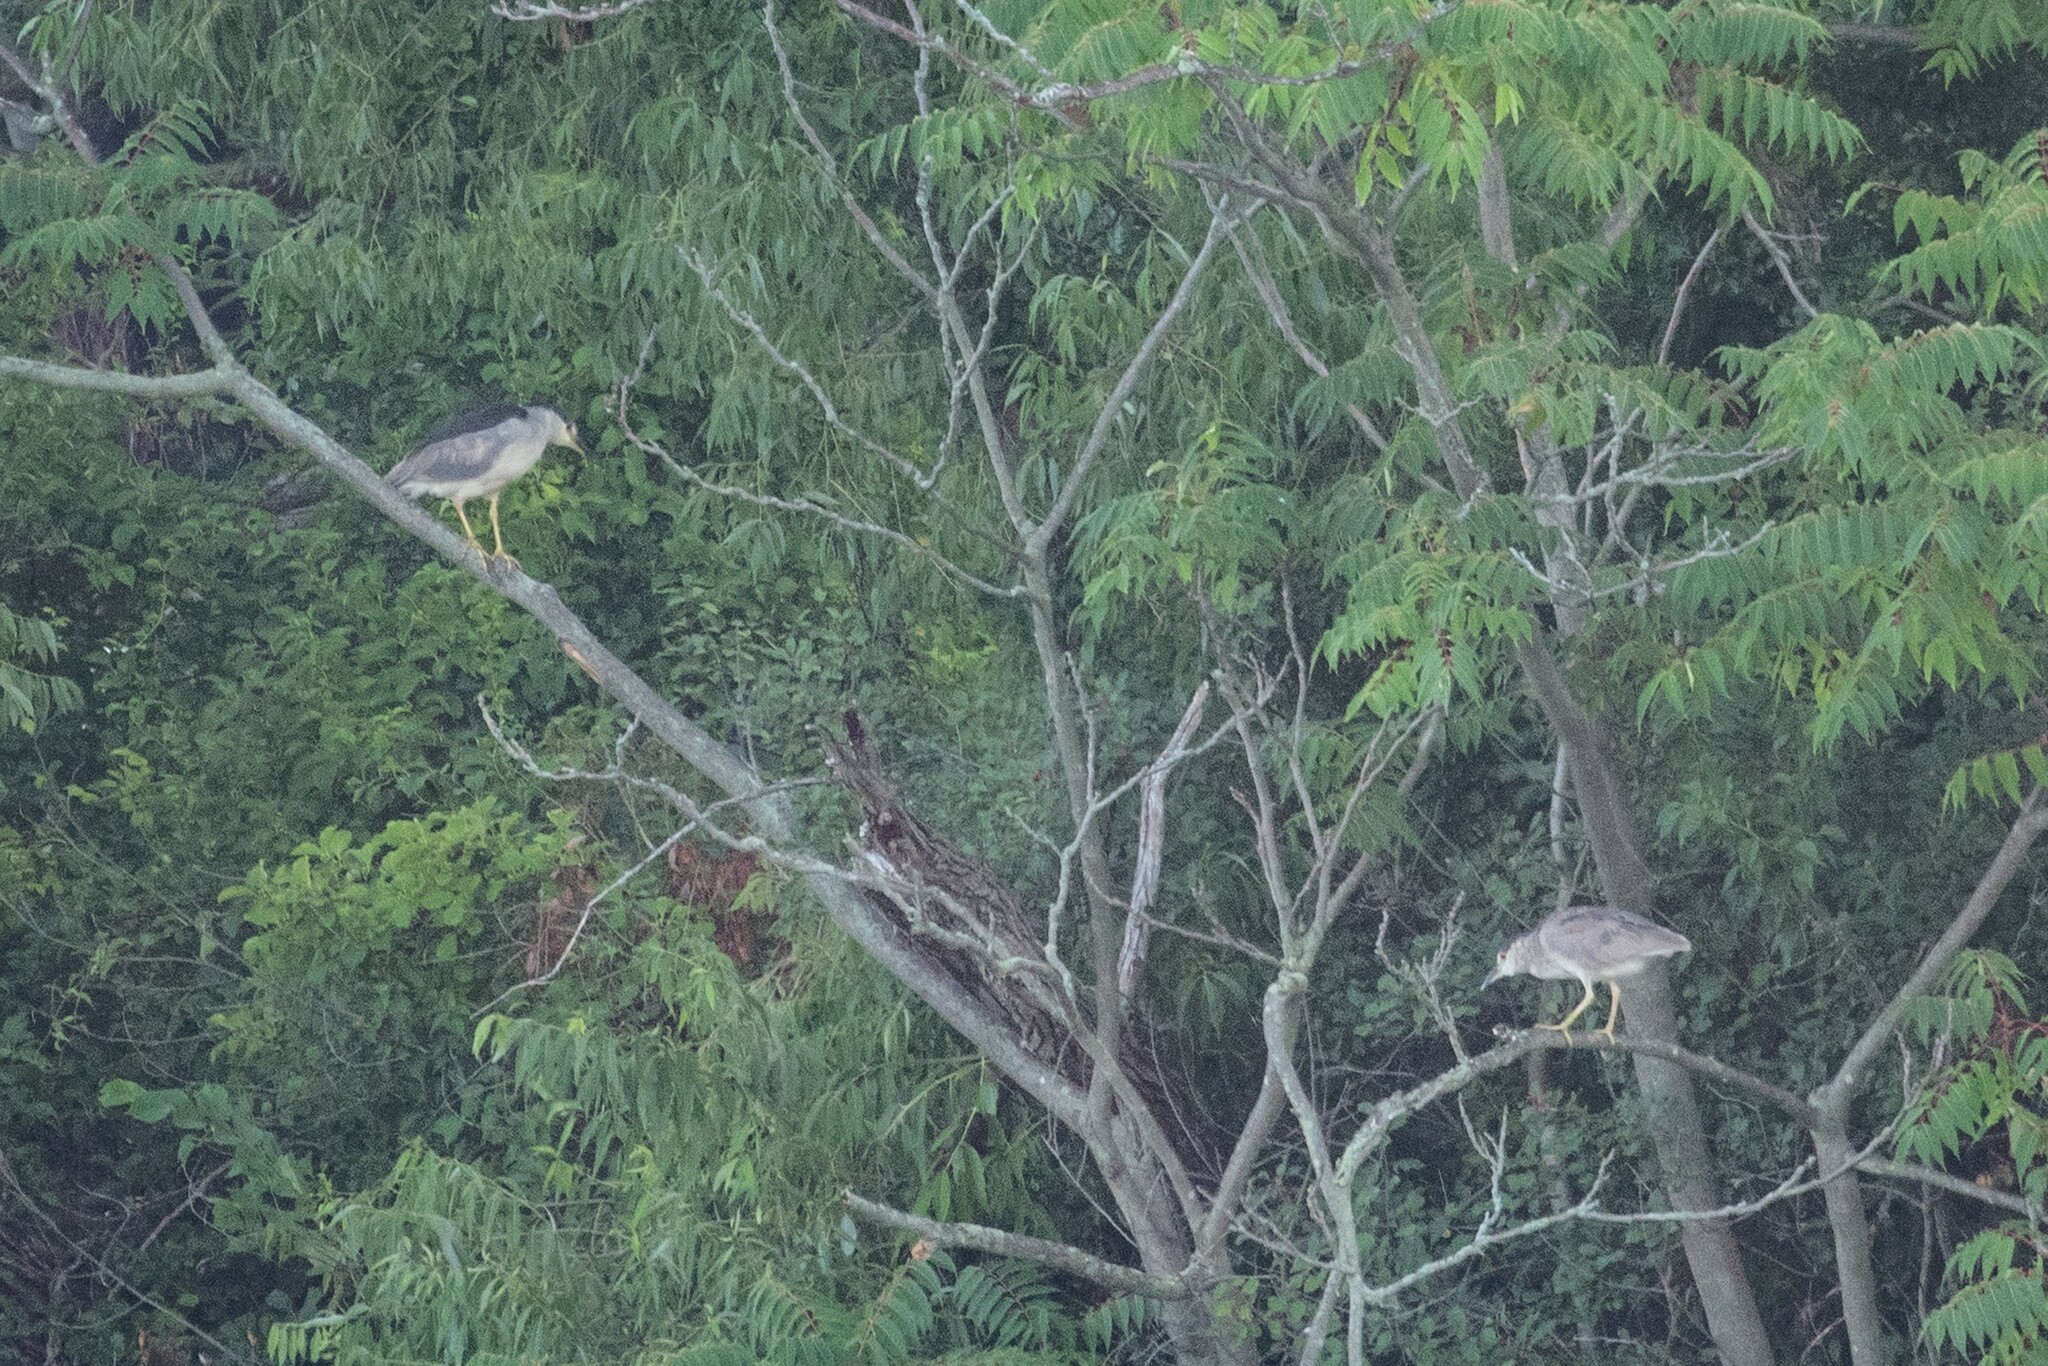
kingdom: Animalia
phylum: Chordata
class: Aves
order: Pelecaniformes
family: Ardeidae
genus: Nycticorax
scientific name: Nycticorax nycticorax
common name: Black-crowned night heron
